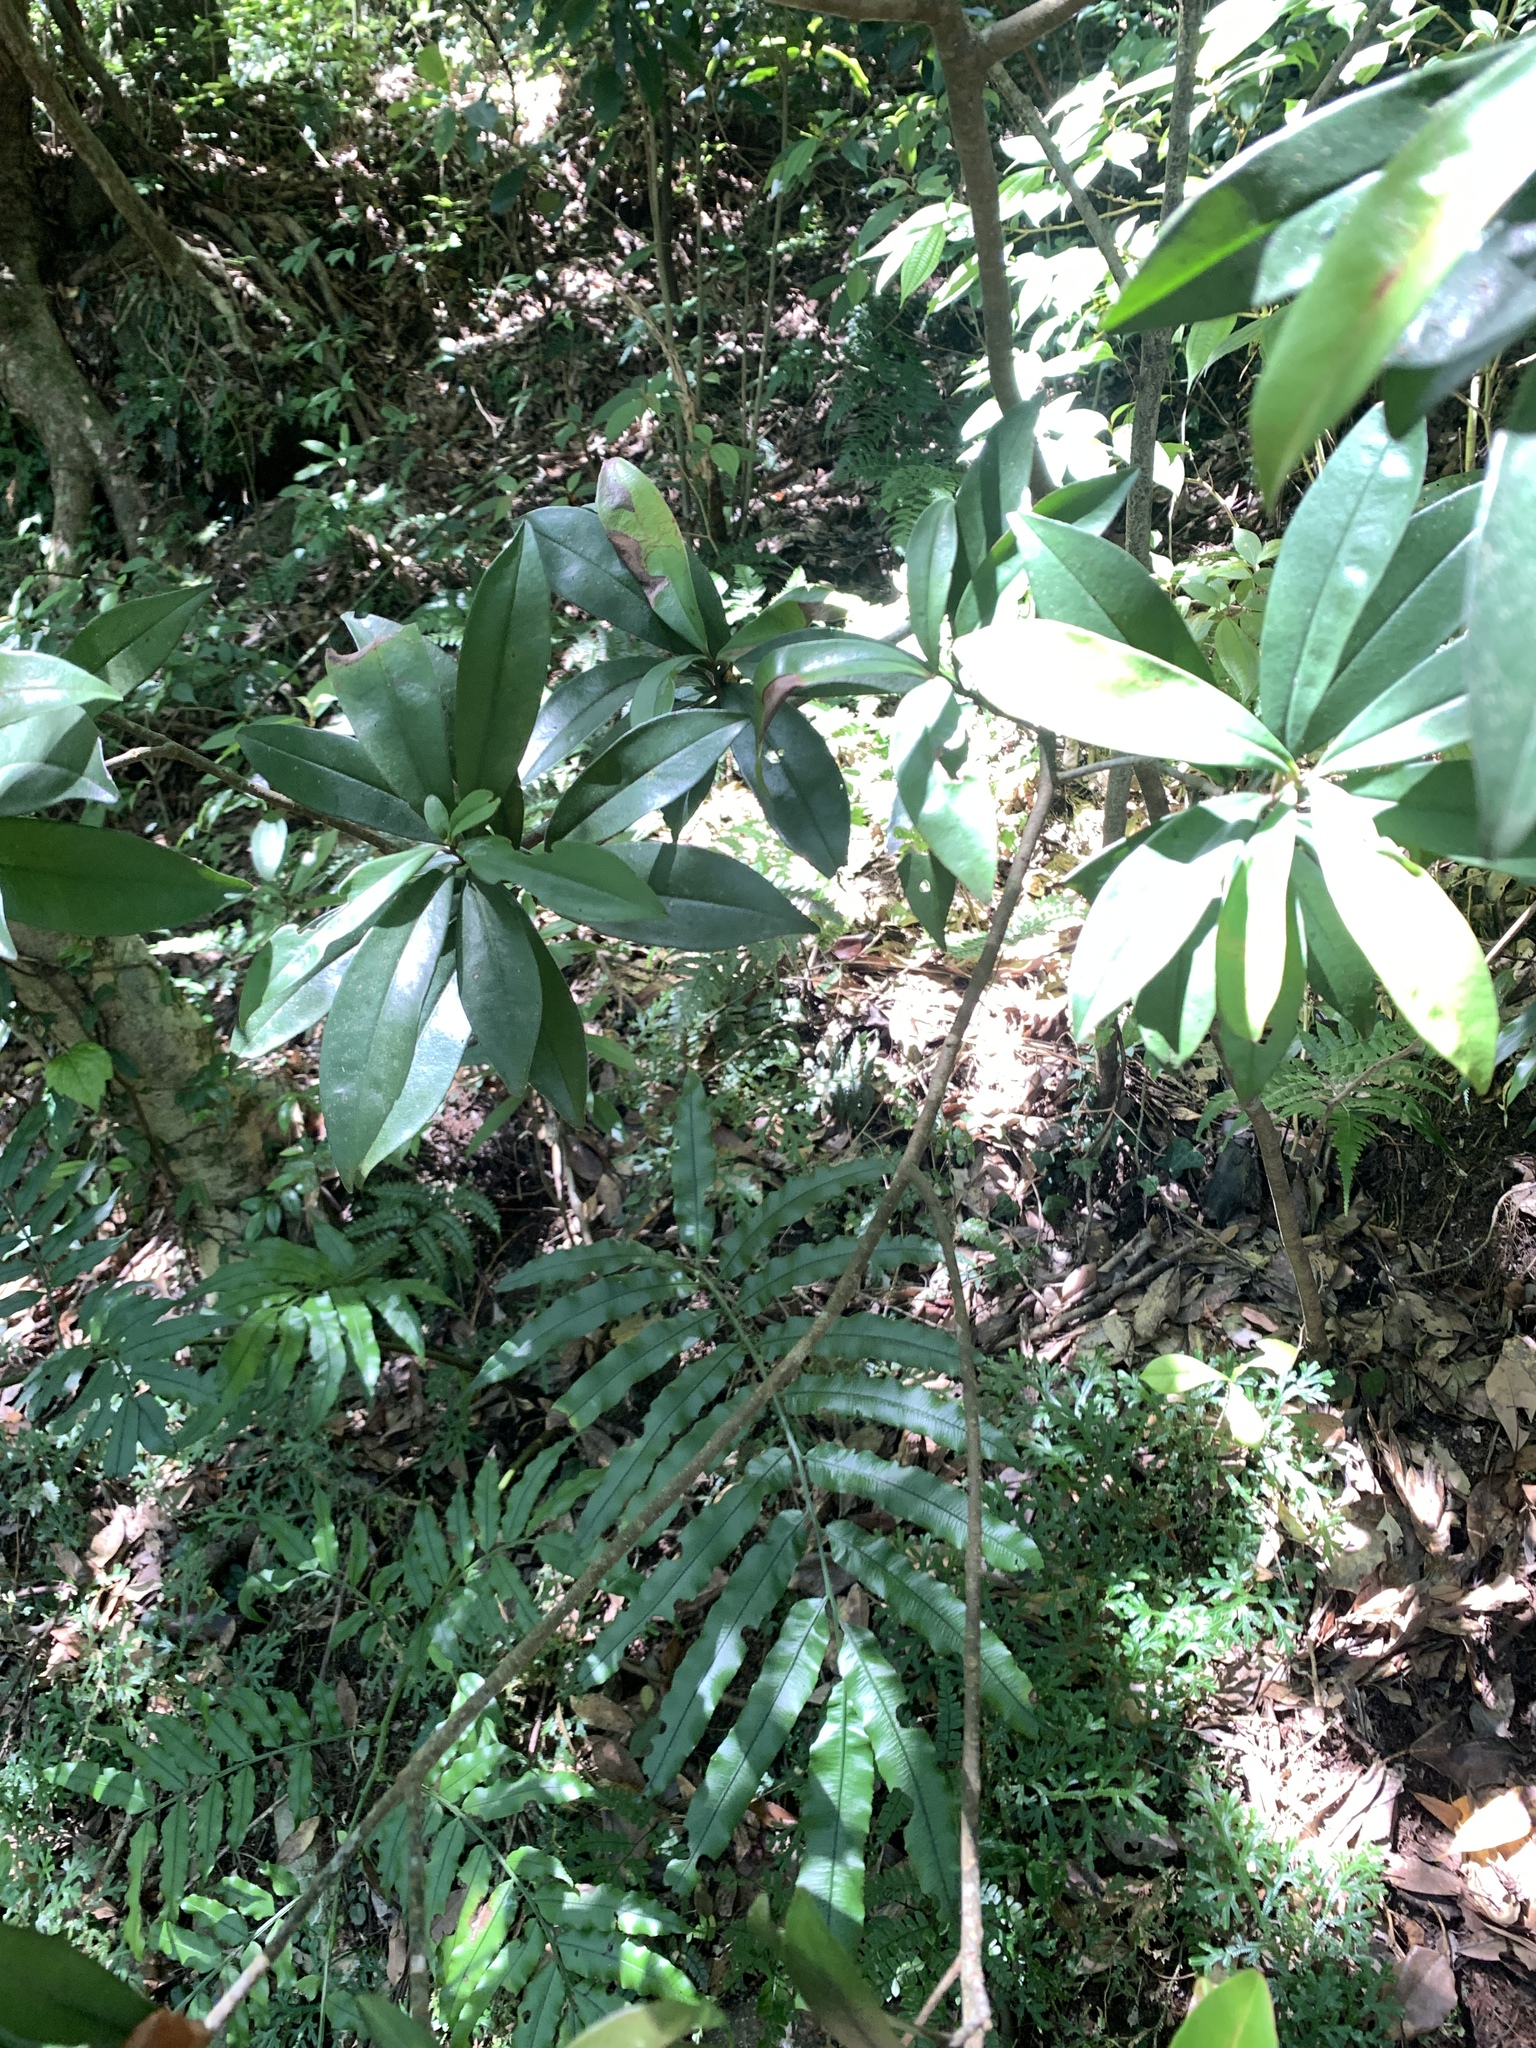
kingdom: Plantae
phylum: Tracheophyta
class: Magnoliopsida
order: Ericales
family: Primulaceae
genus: Myrsine
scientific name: Myrsine seguinii
